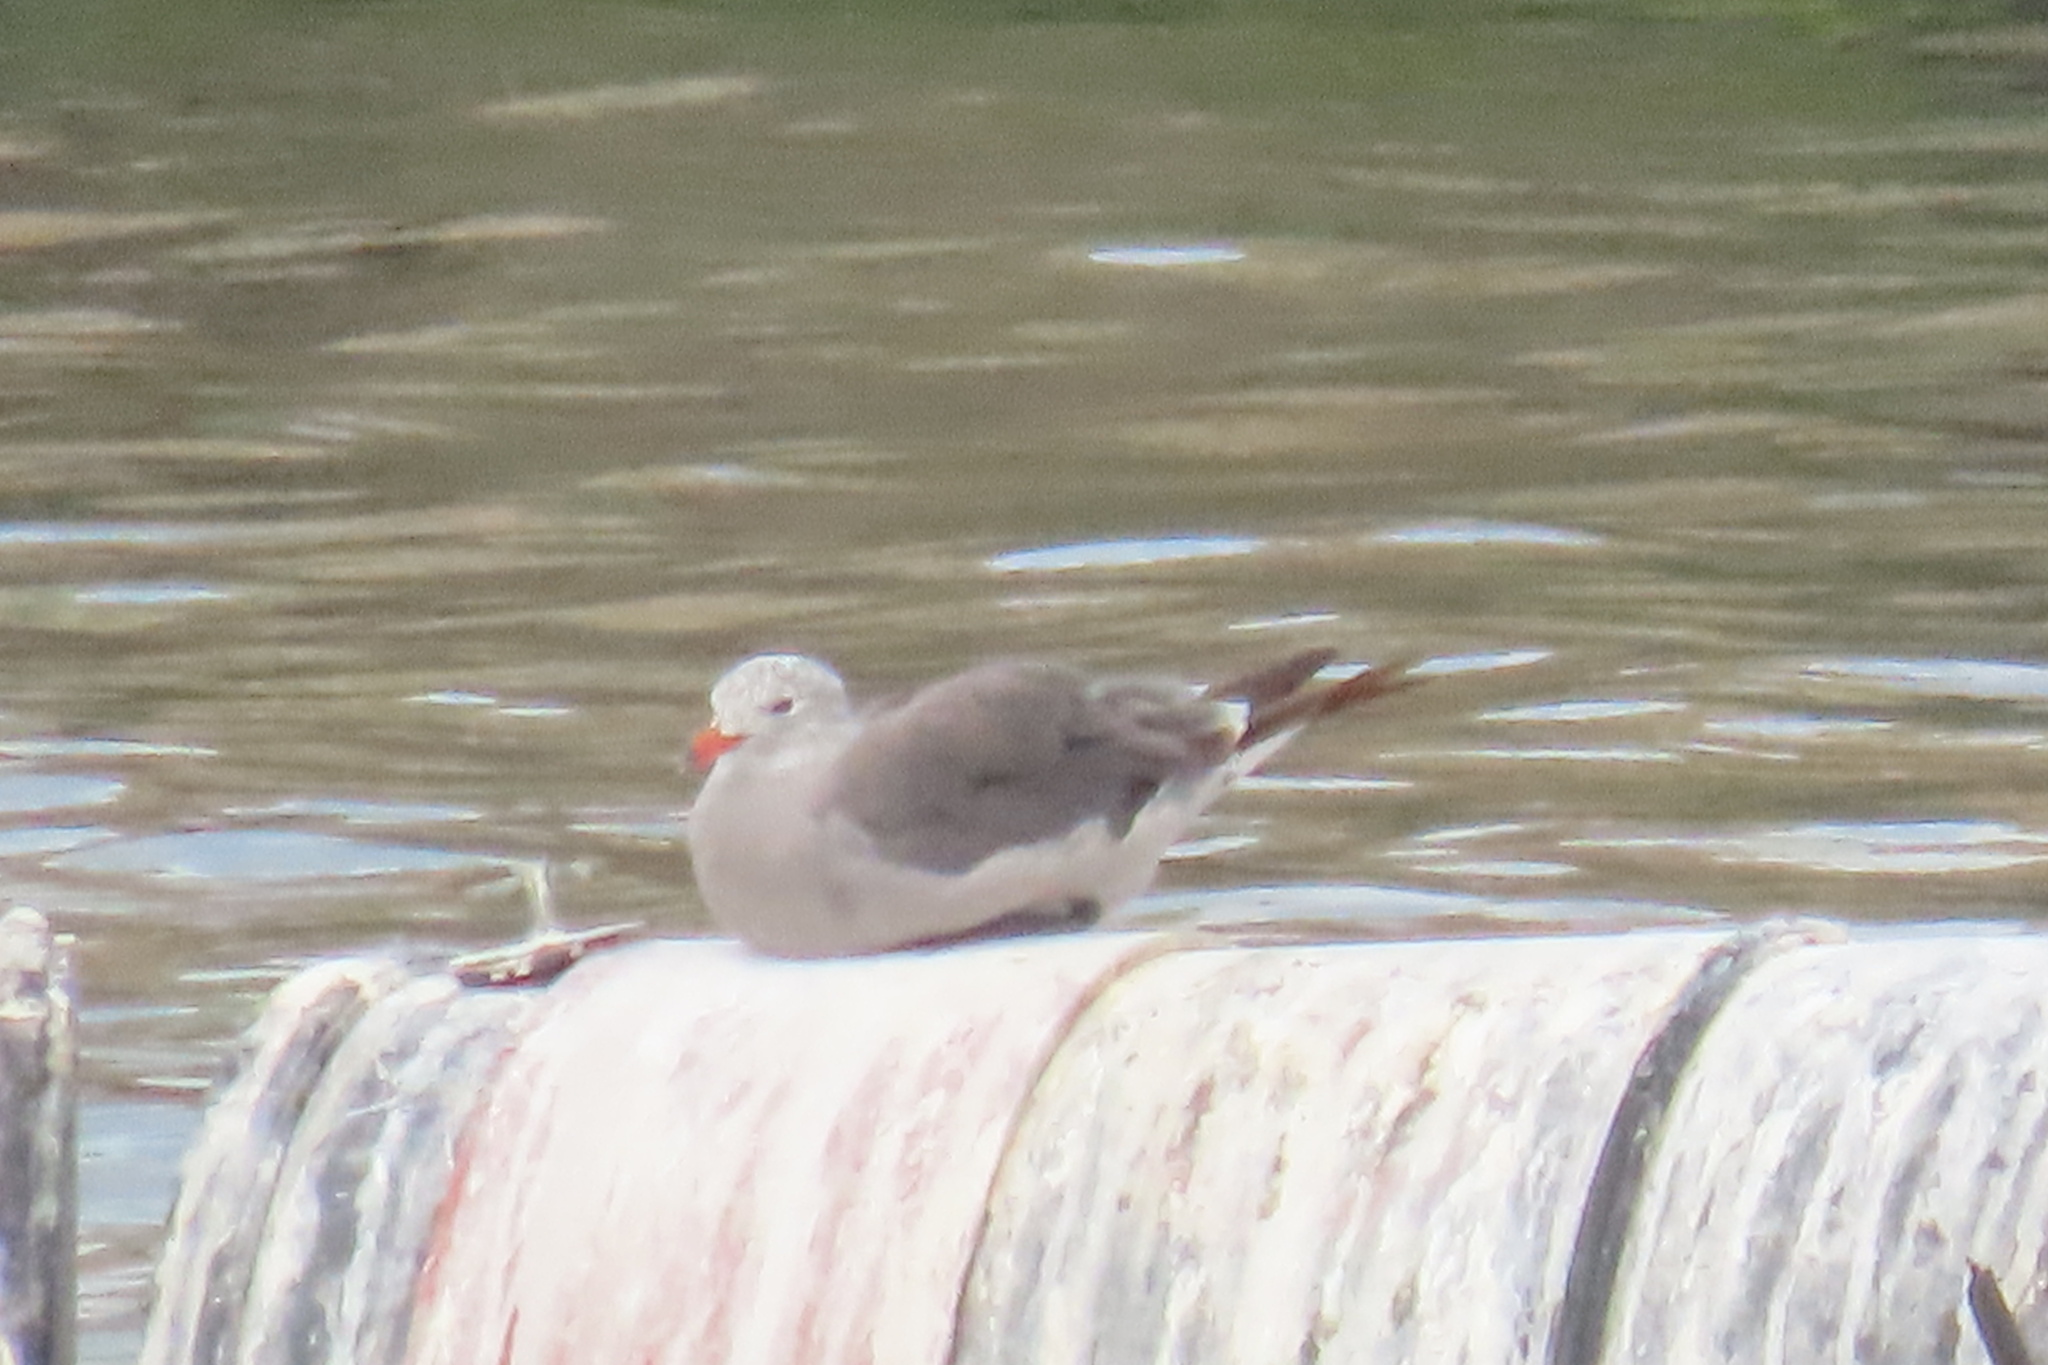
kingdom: Animalia
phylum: Chordata
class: Aves
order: Charadriiformes
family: Laridae
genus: Larus
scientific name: Larus heermanni
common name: Heermann's gull
